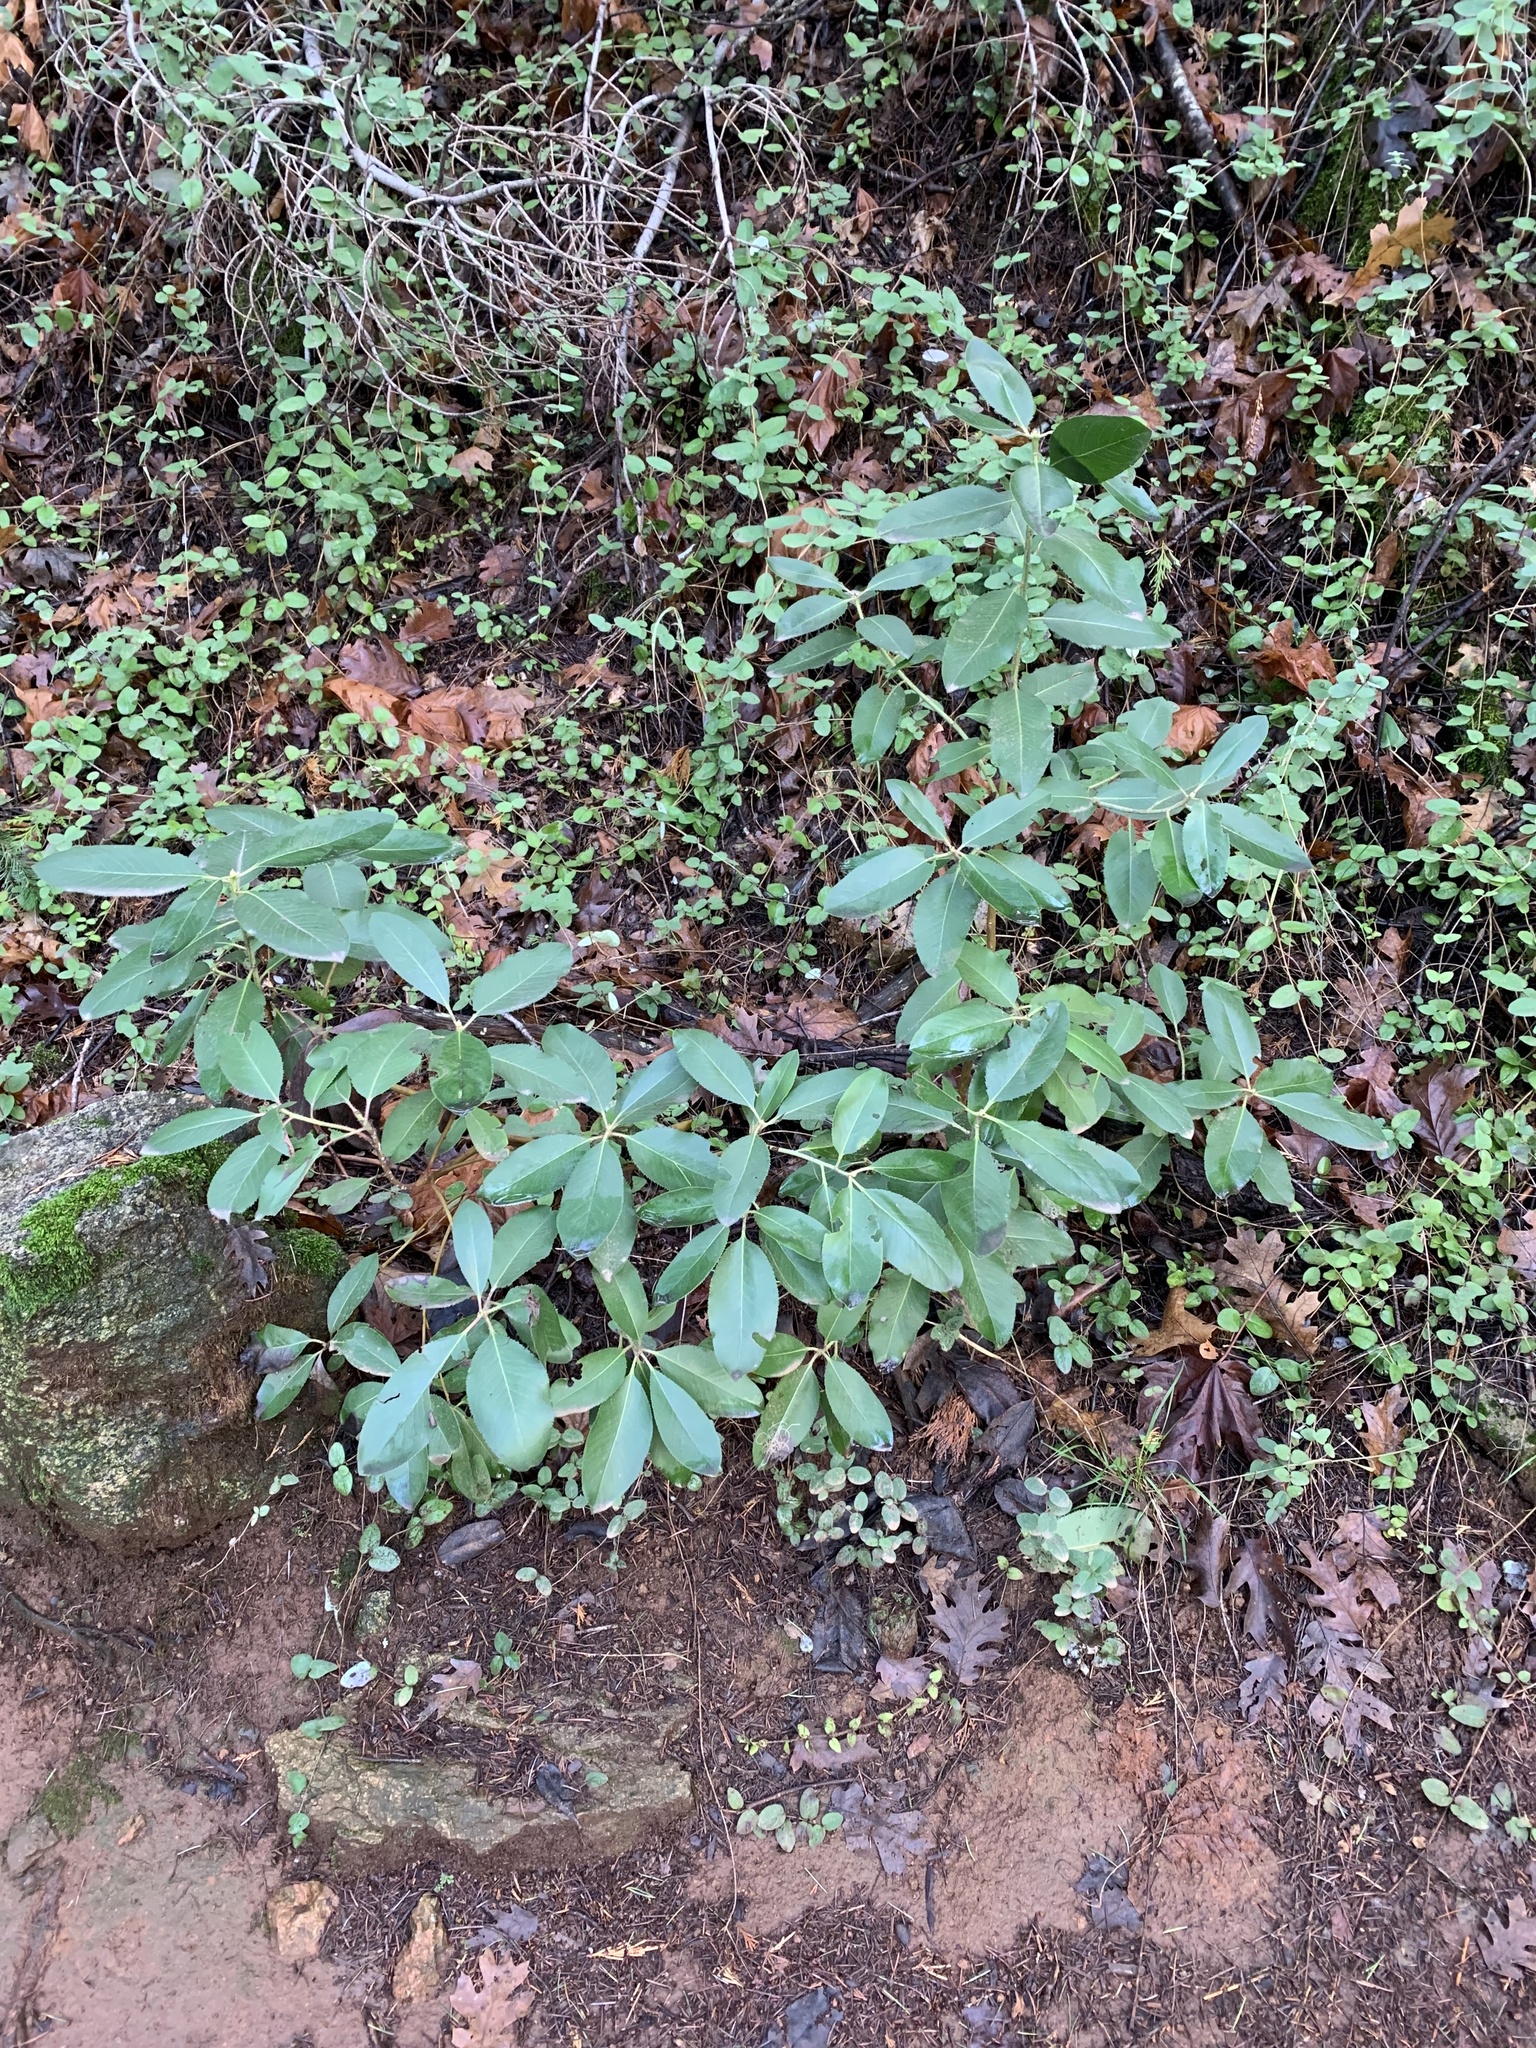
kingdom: Plantae
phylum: Tracheophyta
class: Magnoliopsida
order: Ericales
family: Ericaceae
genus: Arbutus
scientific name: Arbutus menziesii
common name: Pacific madrone
